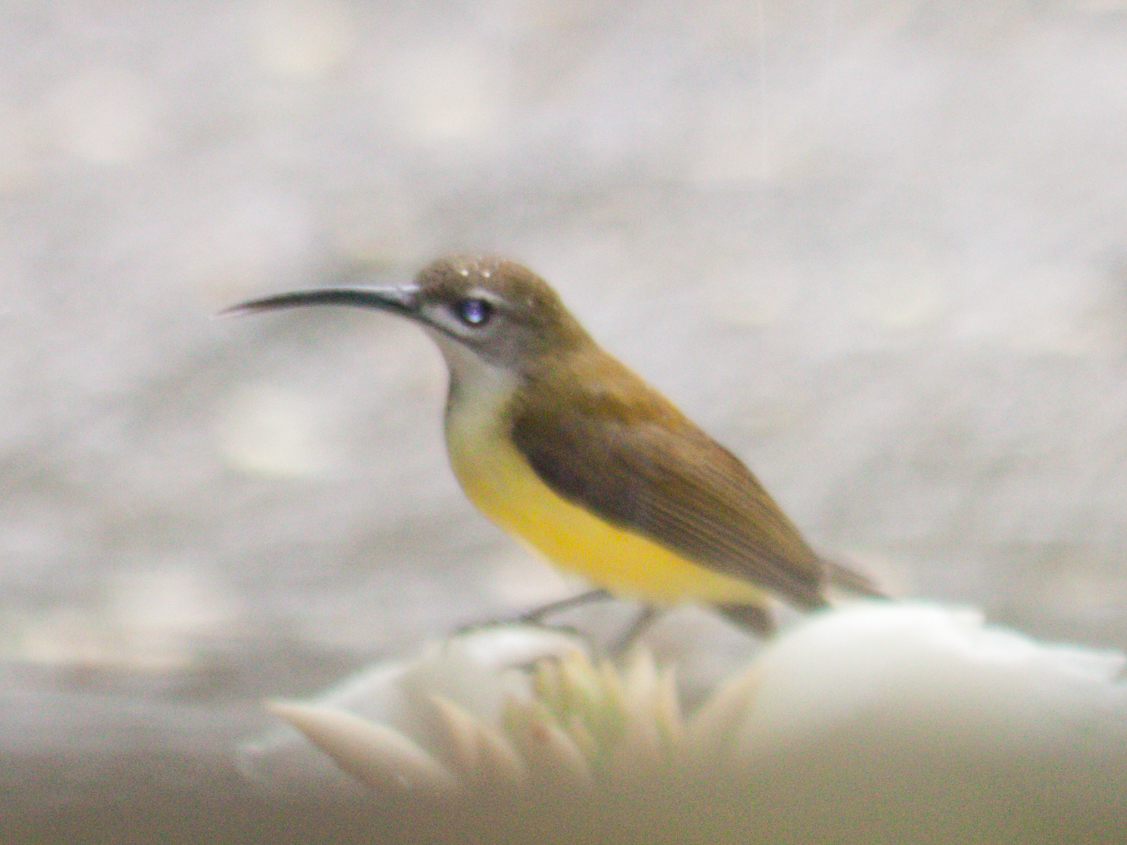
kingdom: Animalia
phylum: Chordata
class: Aves
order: Passeriformes
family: Nectariniidae
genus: Arachnothera
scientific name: Arachnothera longirostra
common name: Little spiderhunter
